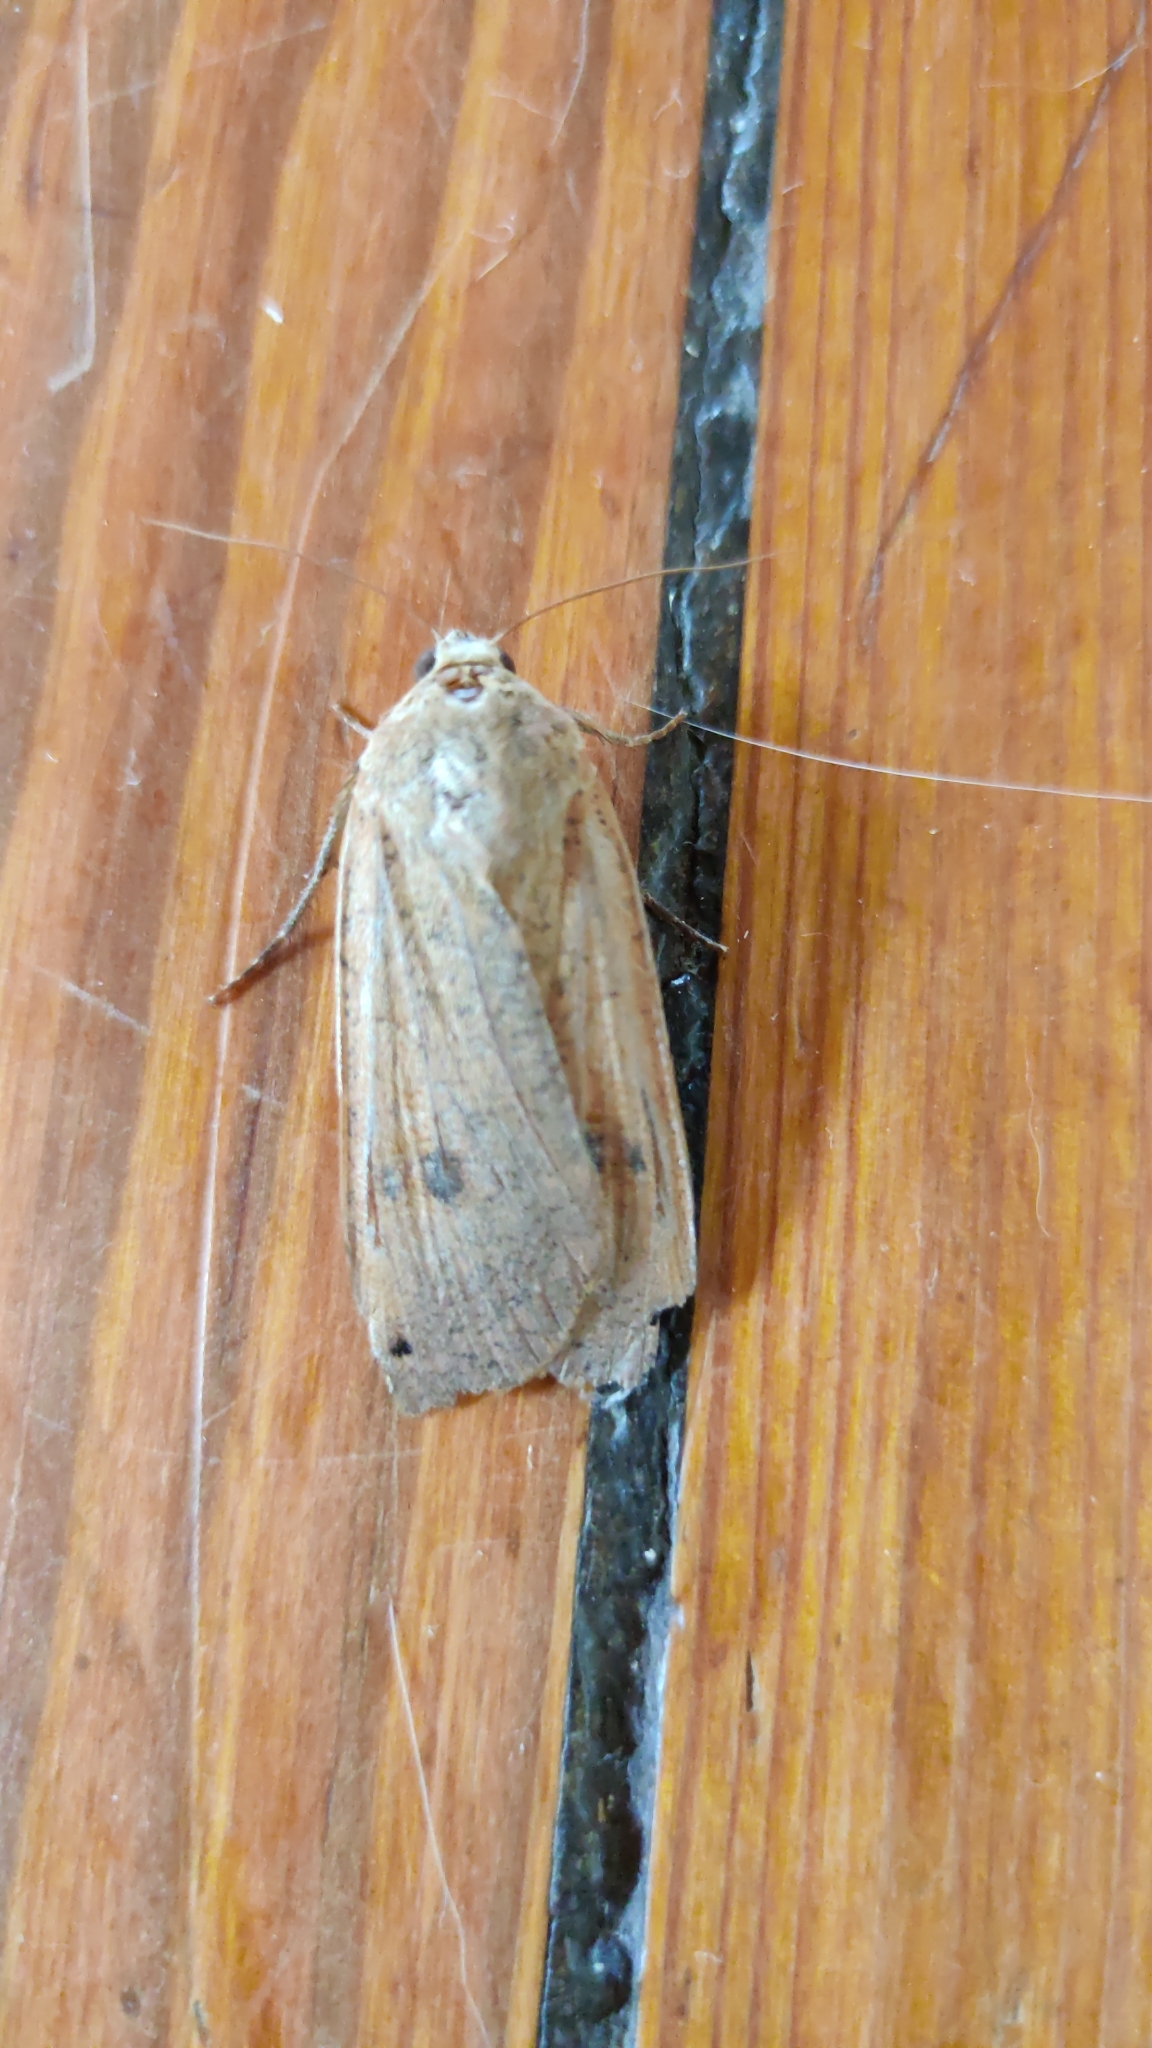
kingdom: Animalia
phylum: Arthropoda
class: Insecta
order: Lepidoptera
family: Noctuidae
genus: Noctua
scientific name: Noctua pronuba
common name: Large yellow underwing
